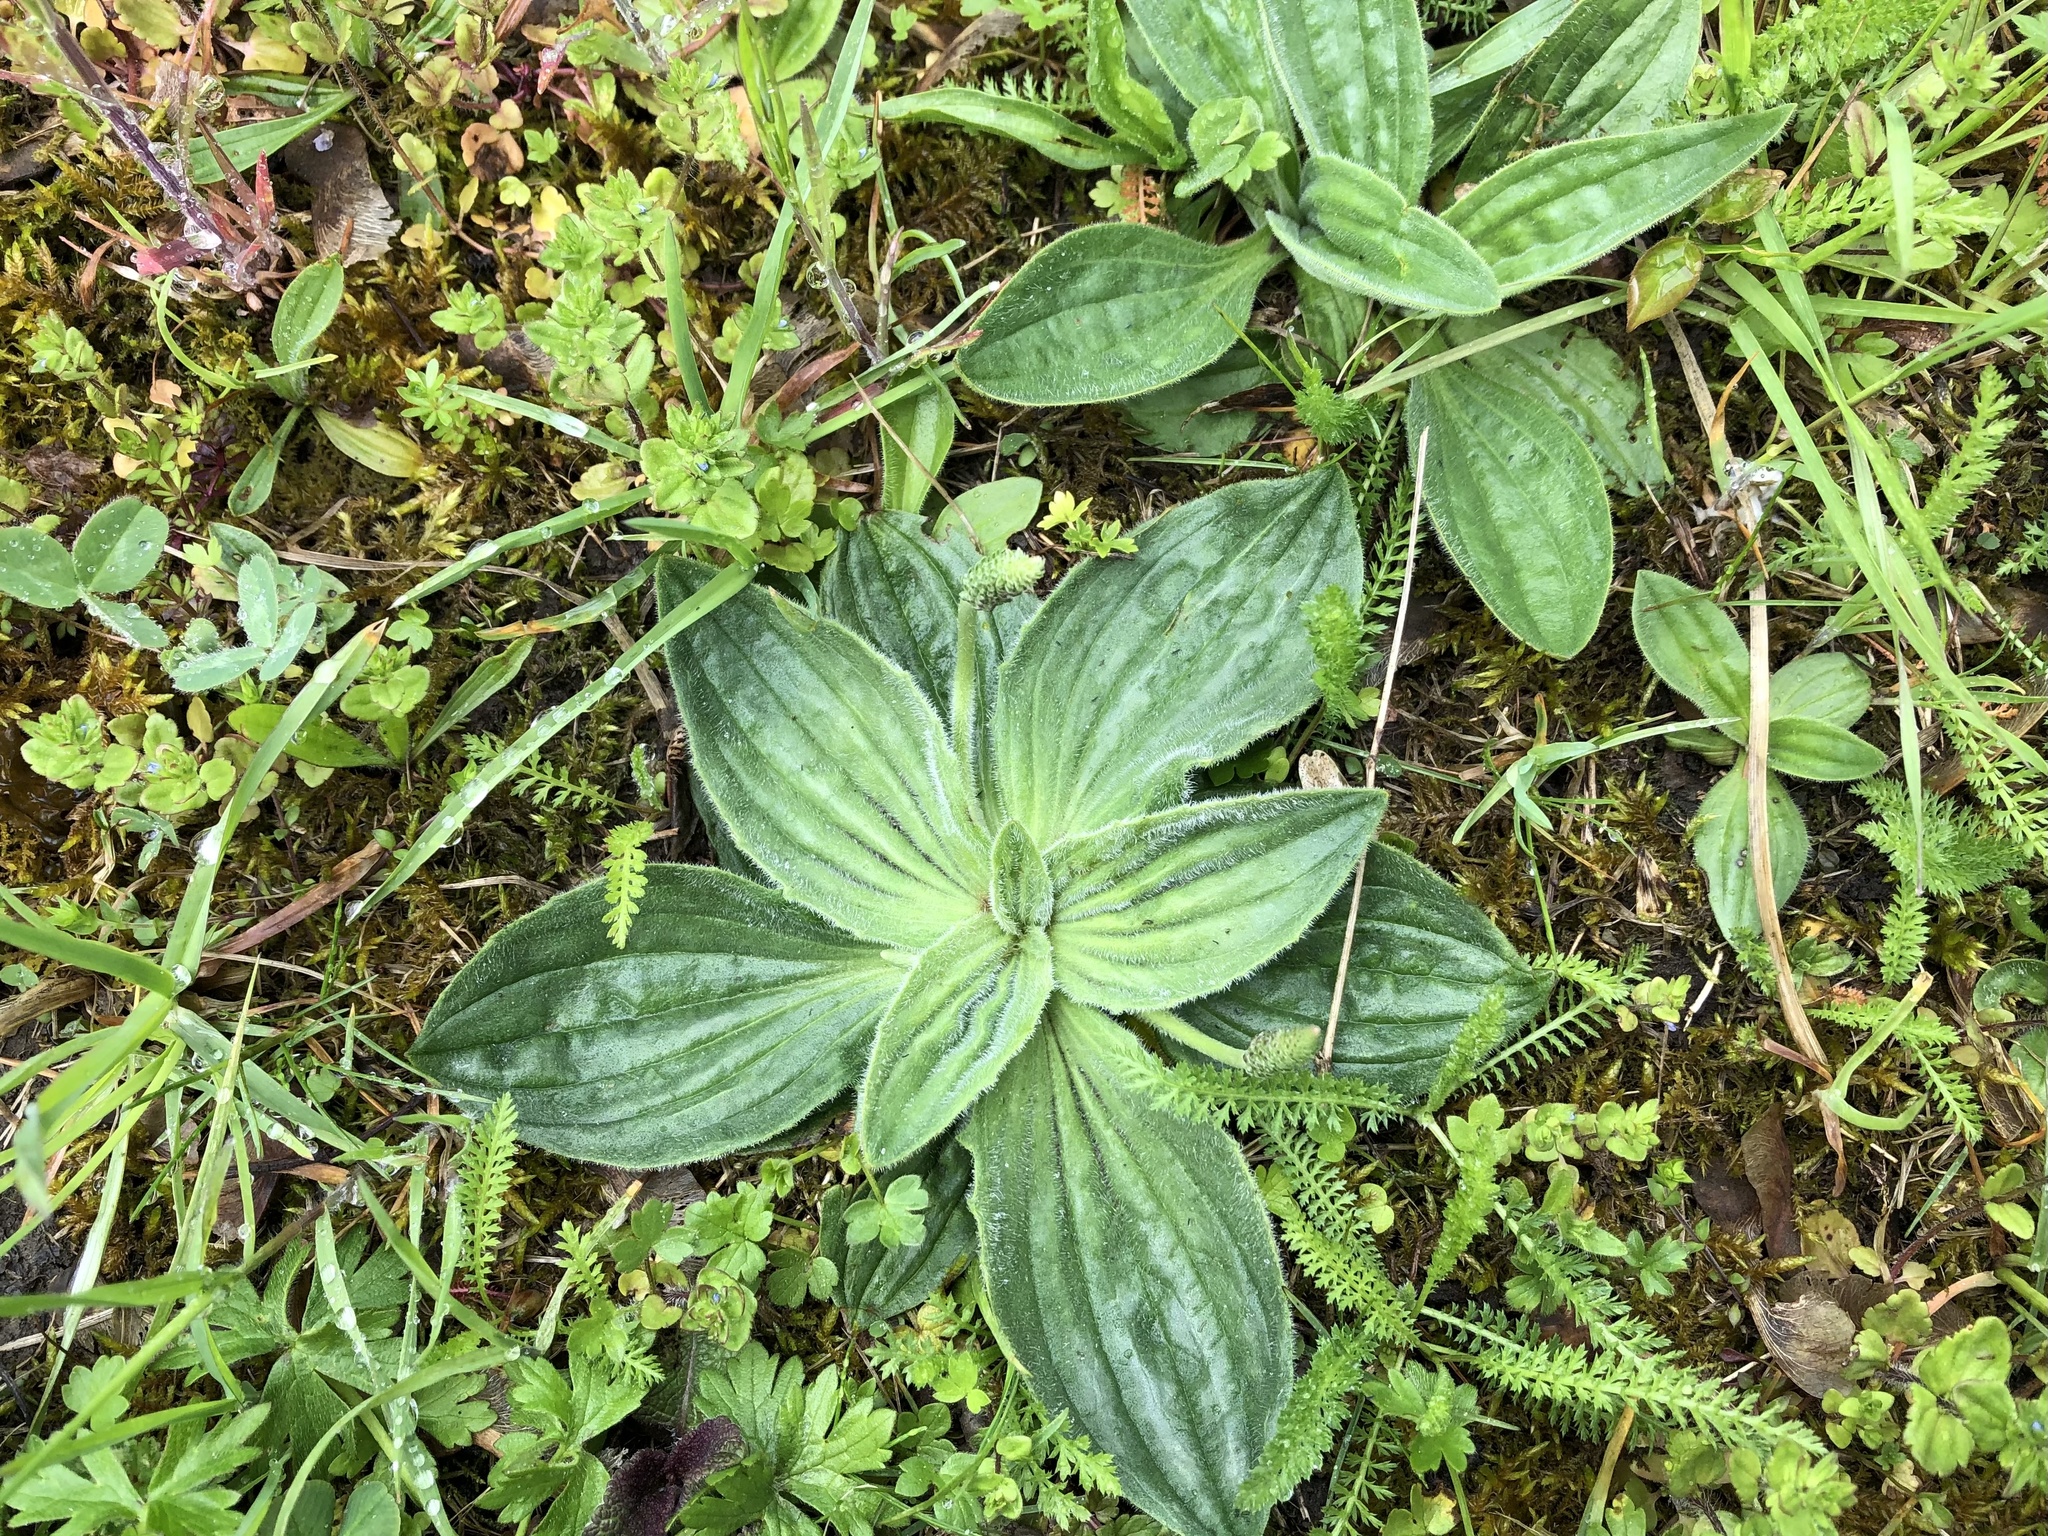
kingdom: Plantae
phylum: Tracheophyta
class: Magnoliopsida
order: Lamiales
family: Plantaginaceae
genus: Plantago
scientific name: Plantago media
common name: Hoary plantain
